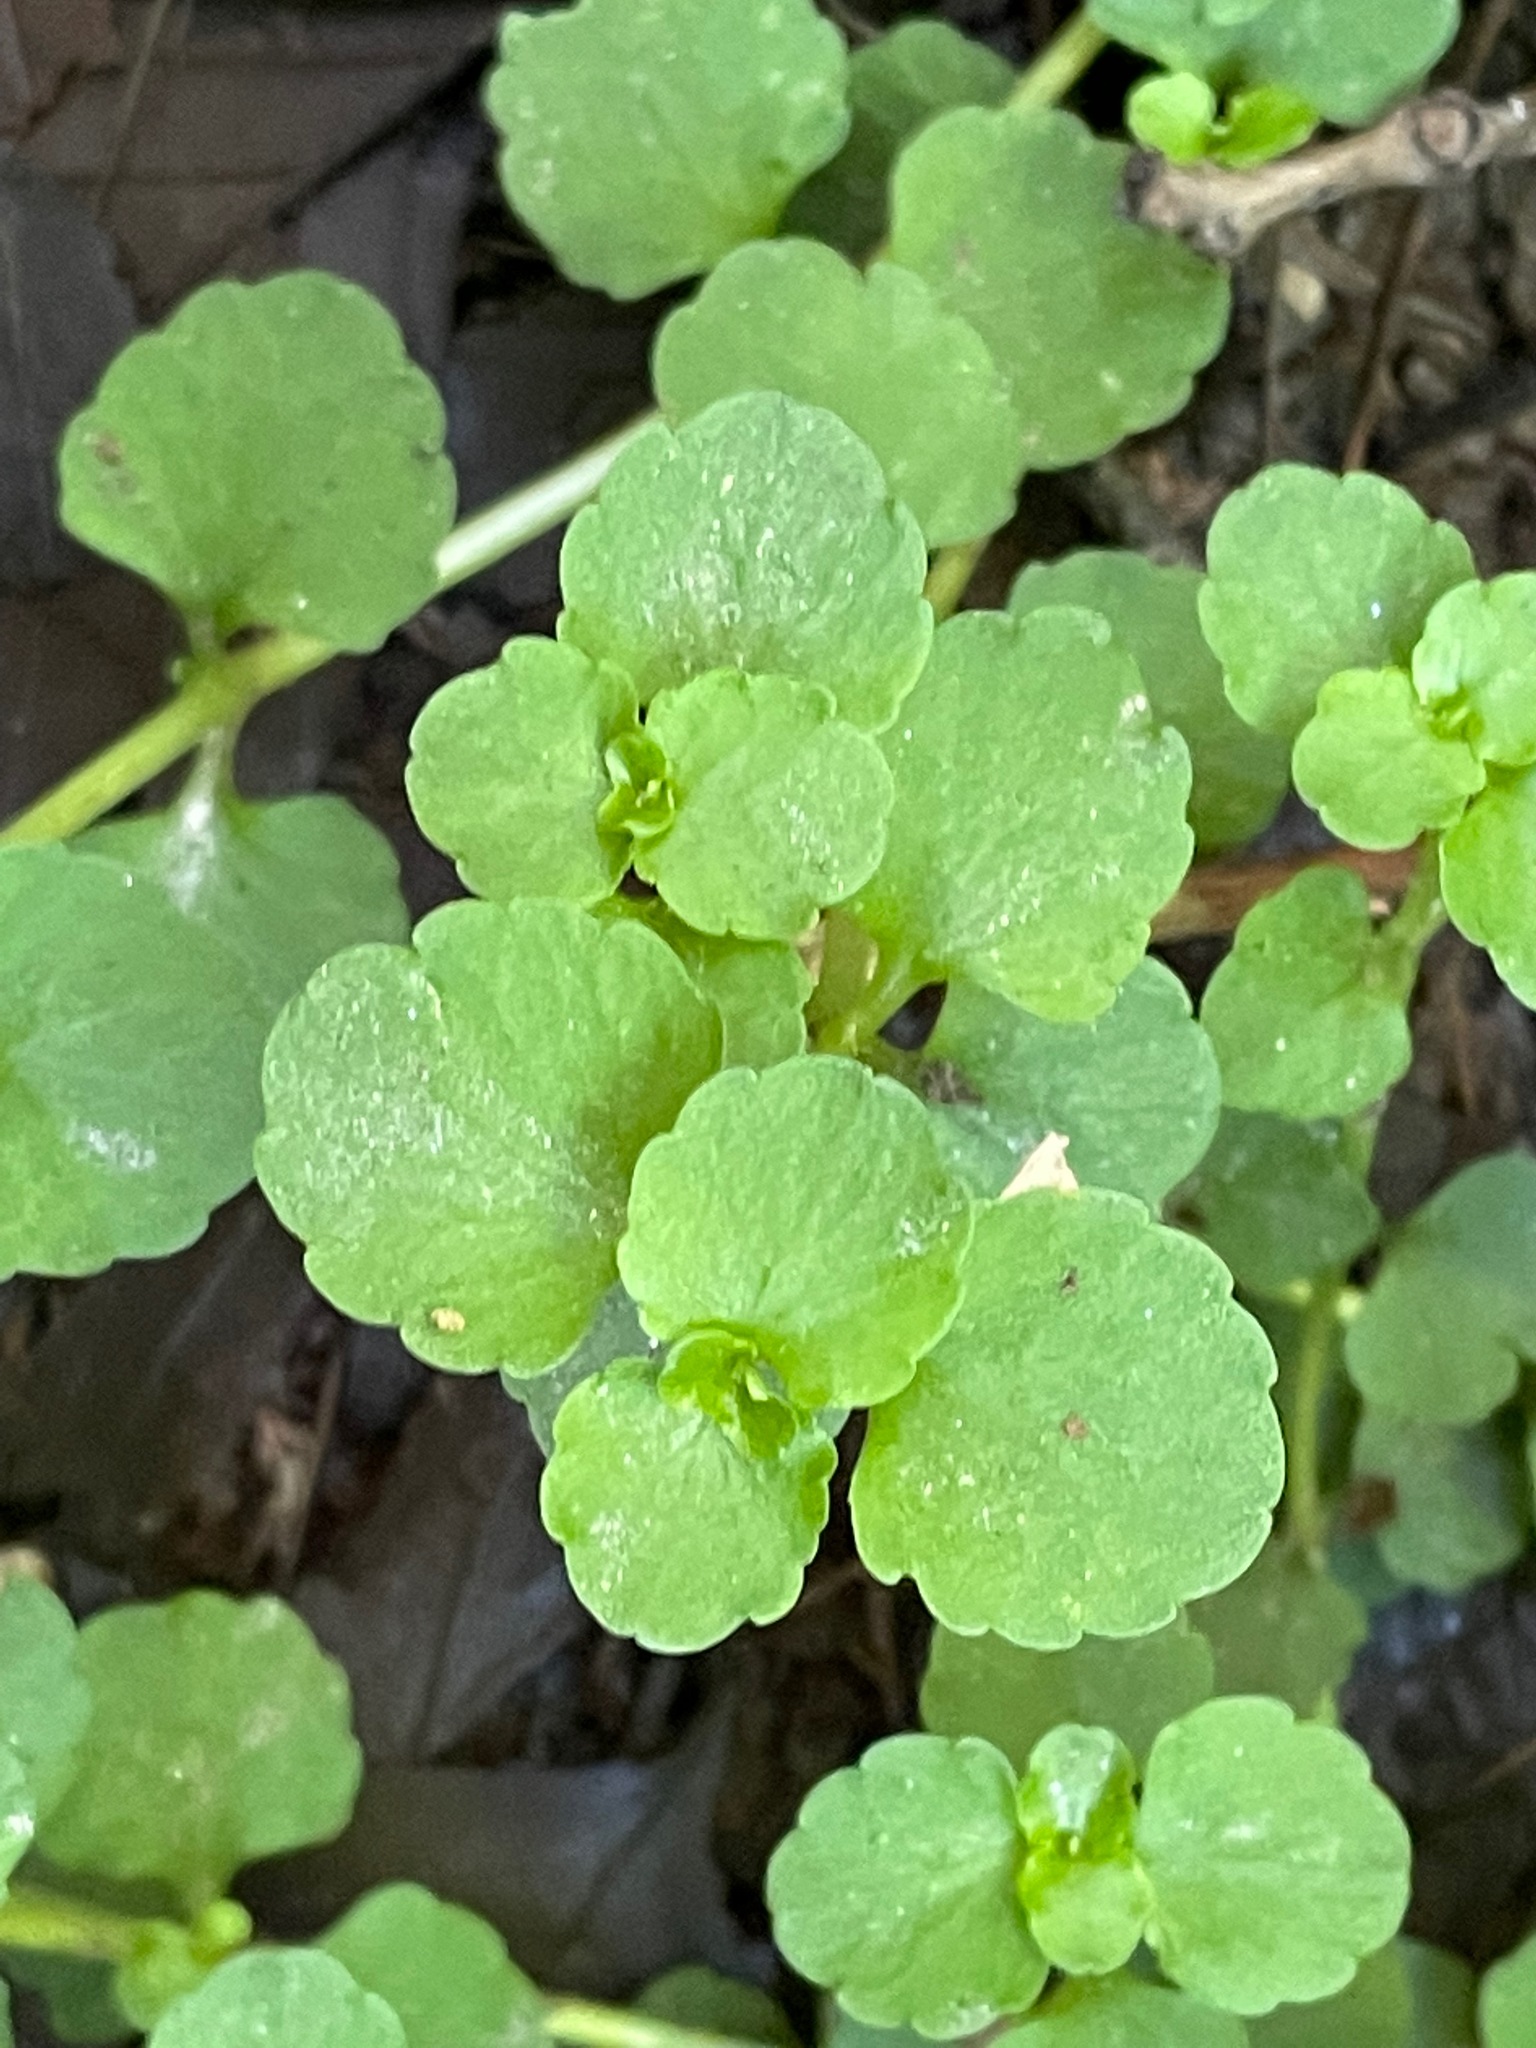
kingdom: Plantae
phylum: Tracheophyta
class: Magnoliopsida
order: Saxifragales
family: Saxifragaceae
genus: Chrysosplenium
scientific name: Chrysosplenium americanum
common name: American golden-saxifrage
